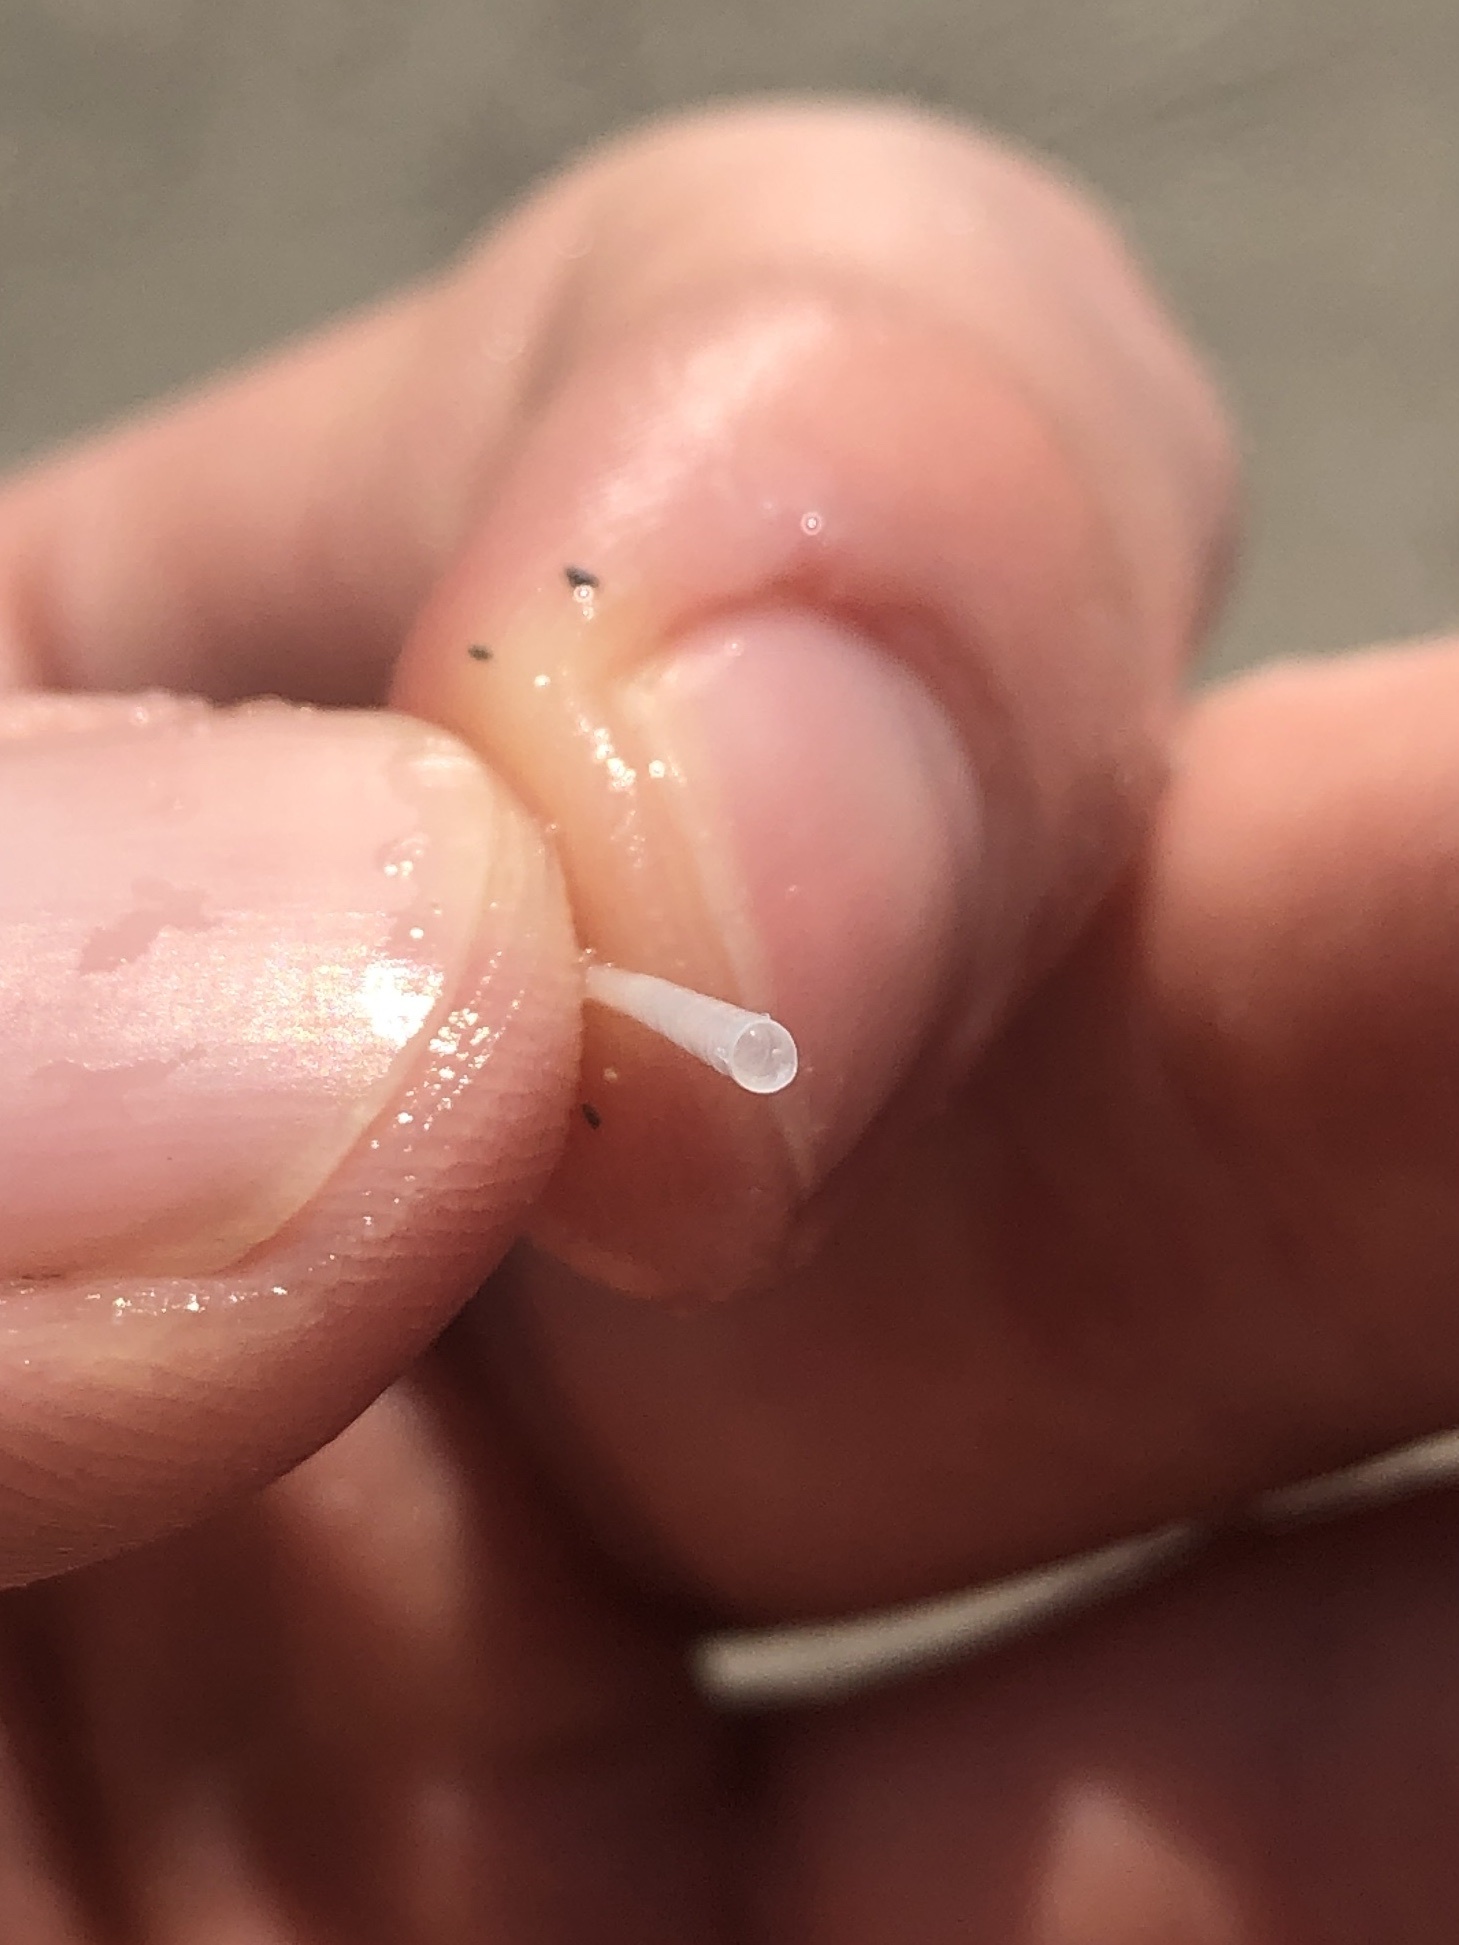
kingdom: Animalia
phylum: Mollusca
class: Scaphopoda
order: Dentaliida
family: Dentaliidae
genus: Graptacme
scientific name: Graptacme eborea
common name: Ivory tuskshell
